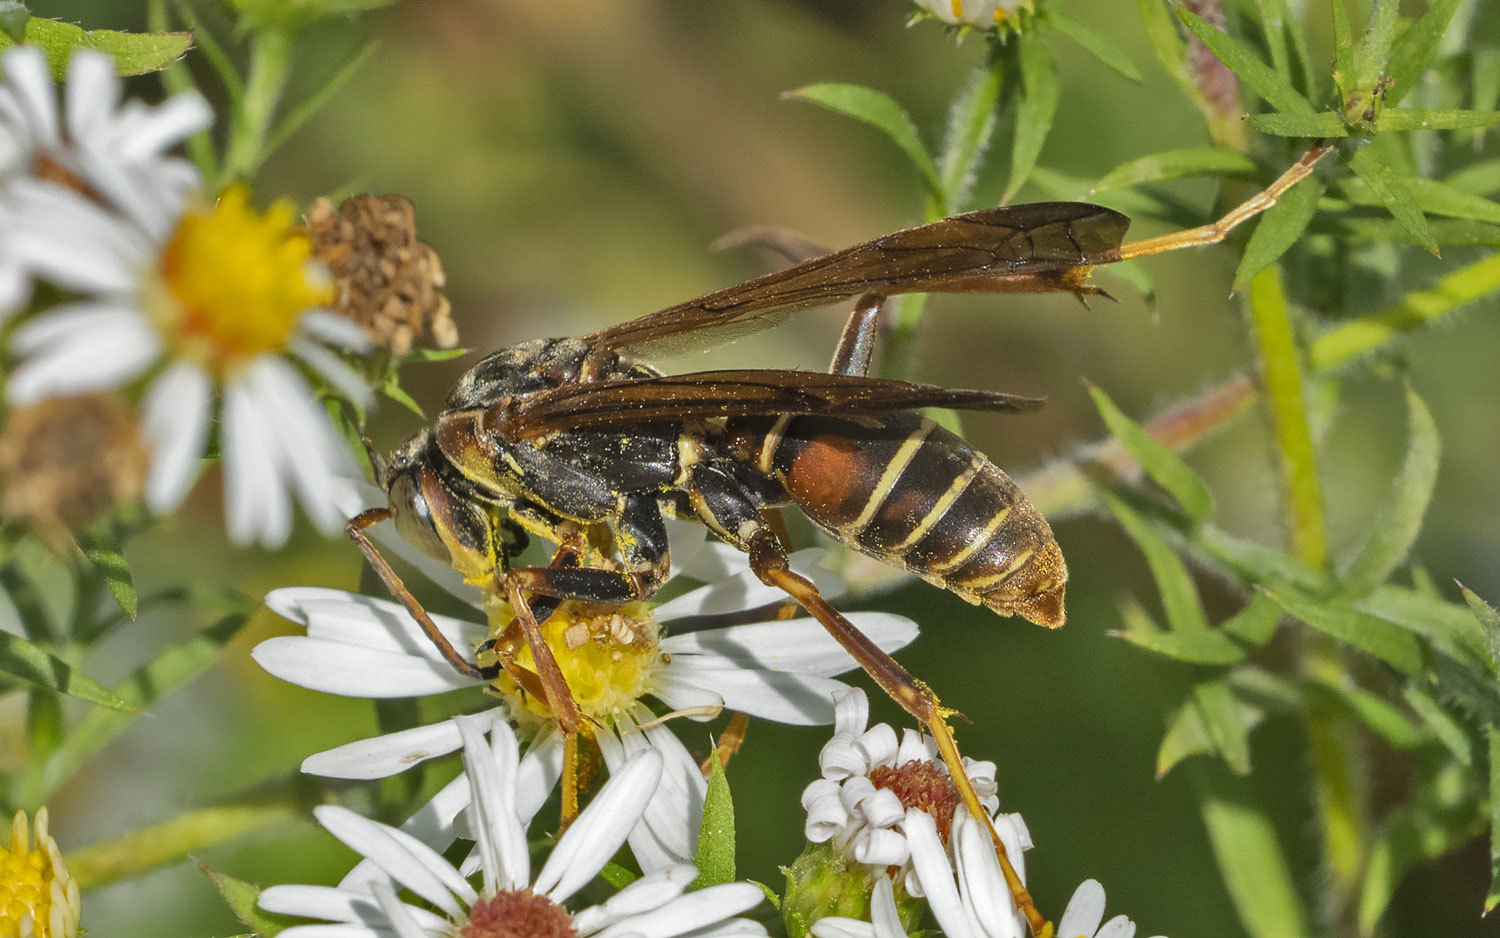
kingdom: Animalia
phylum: Arthropoda
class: Insecta
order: Hymenoptera
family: Eumenidae
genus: Polistes
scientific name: Polistes fuscatus
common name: Dark paper wasp
